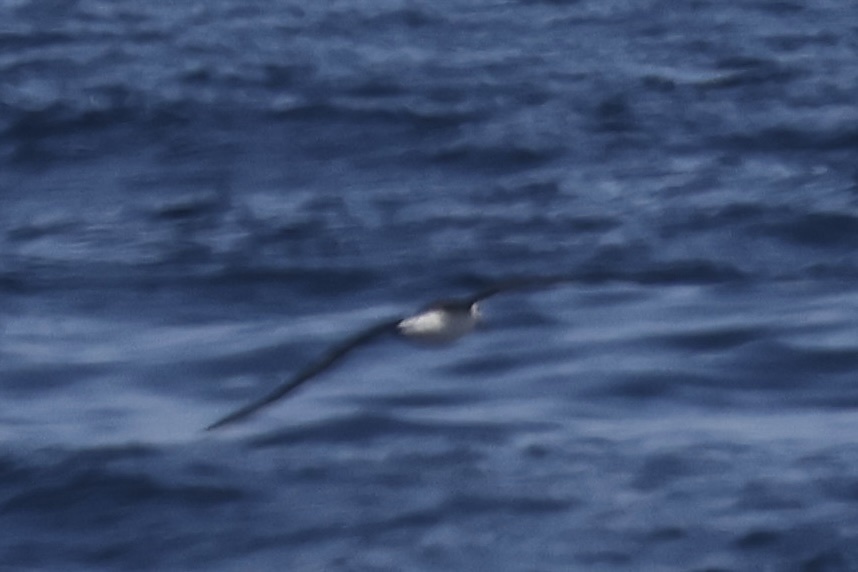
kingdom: Animalia
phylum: Chordata
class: Aves
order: Procellariiformes
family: Diomedeidae
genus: Phoebastria
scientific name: Phoebastria immutabilis
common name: Laysan albatross
